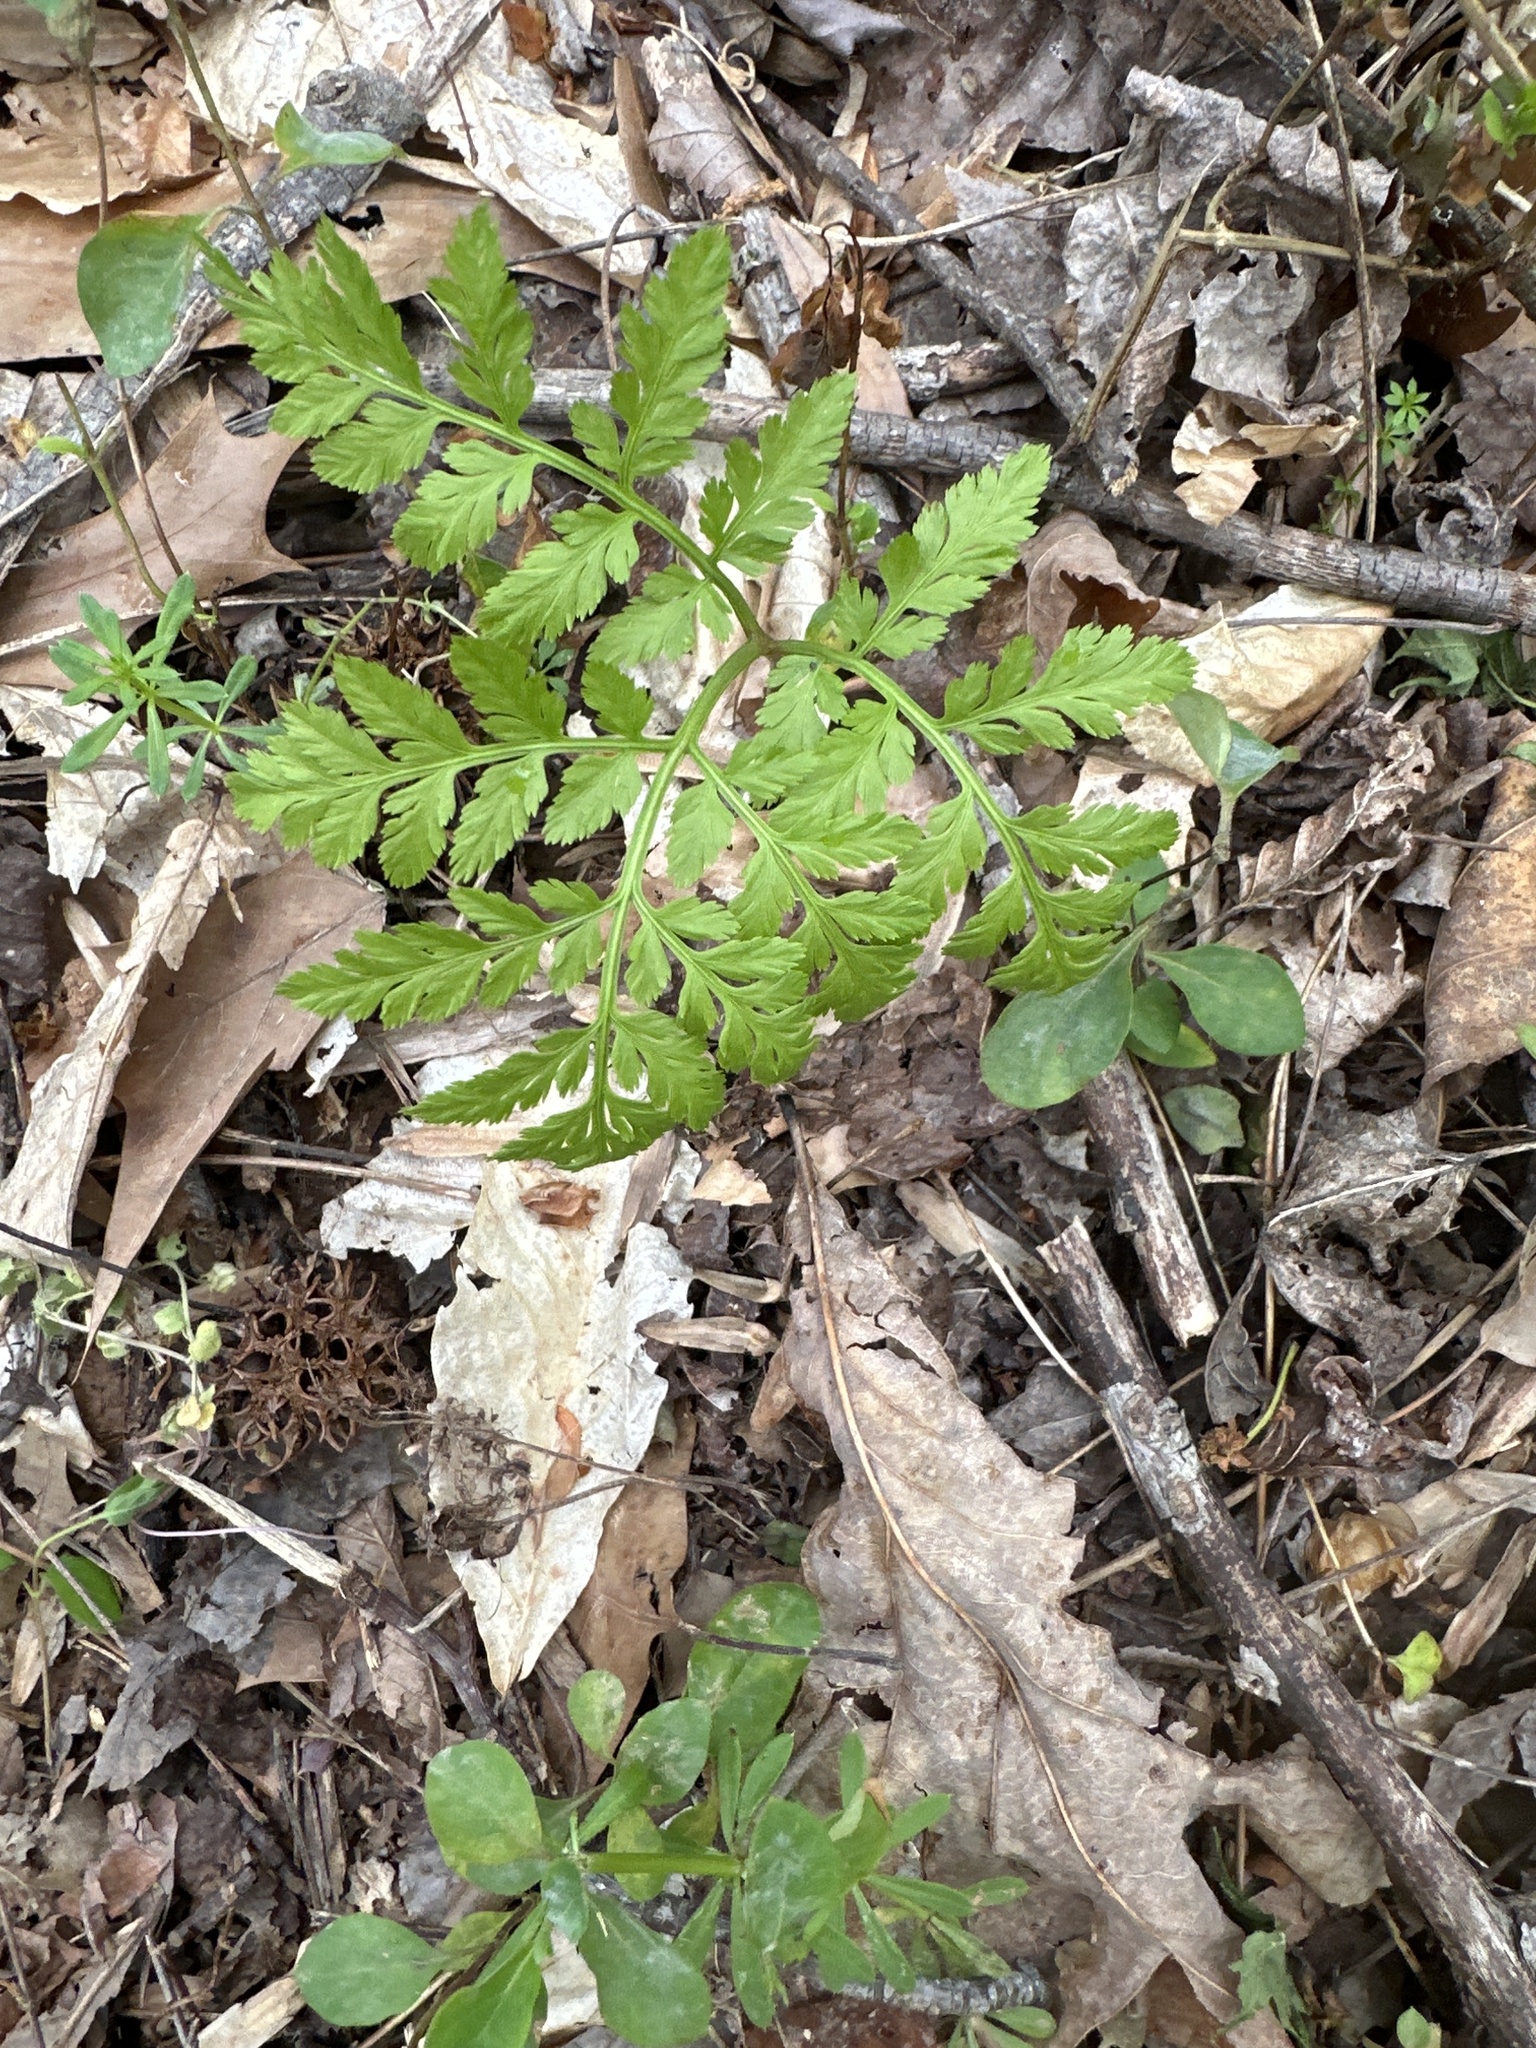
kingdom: Plantae
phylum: Tracheophyta
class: Polypodiopsida
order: Ophioglossales
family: Ophioglossaceae
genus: Botrypus
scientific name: Botrypus virginianus
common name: Common grapefern
